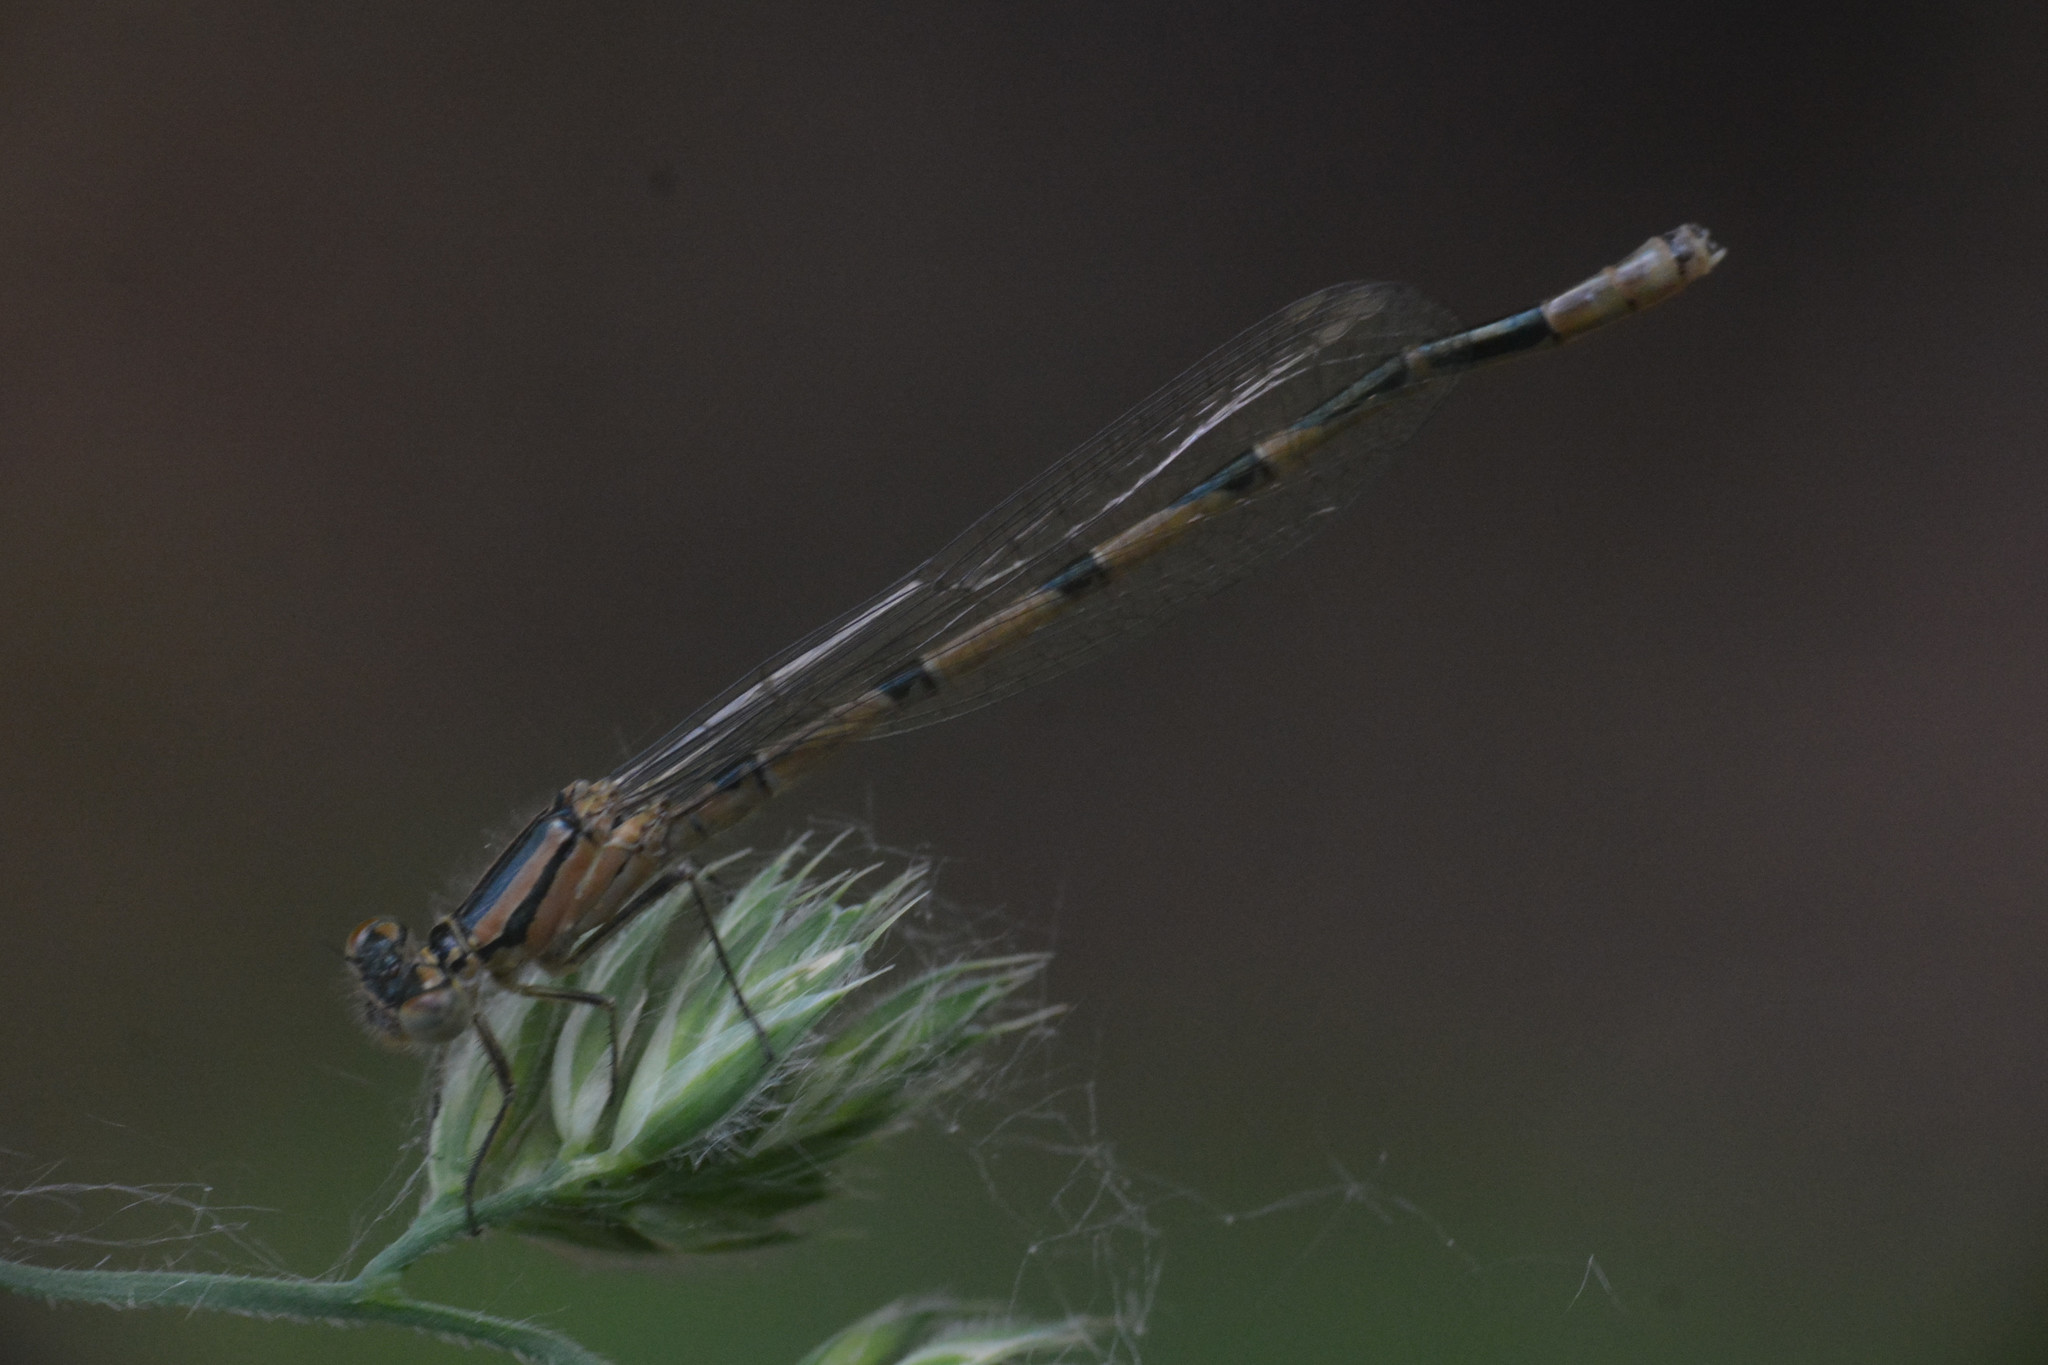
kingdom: Animalia
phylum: Arthropoda
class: Insecta
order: Odonata
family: Coenagrionidae
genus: Enallagma
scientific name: Enallagma cyathigerum
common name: Common blue damselfly
